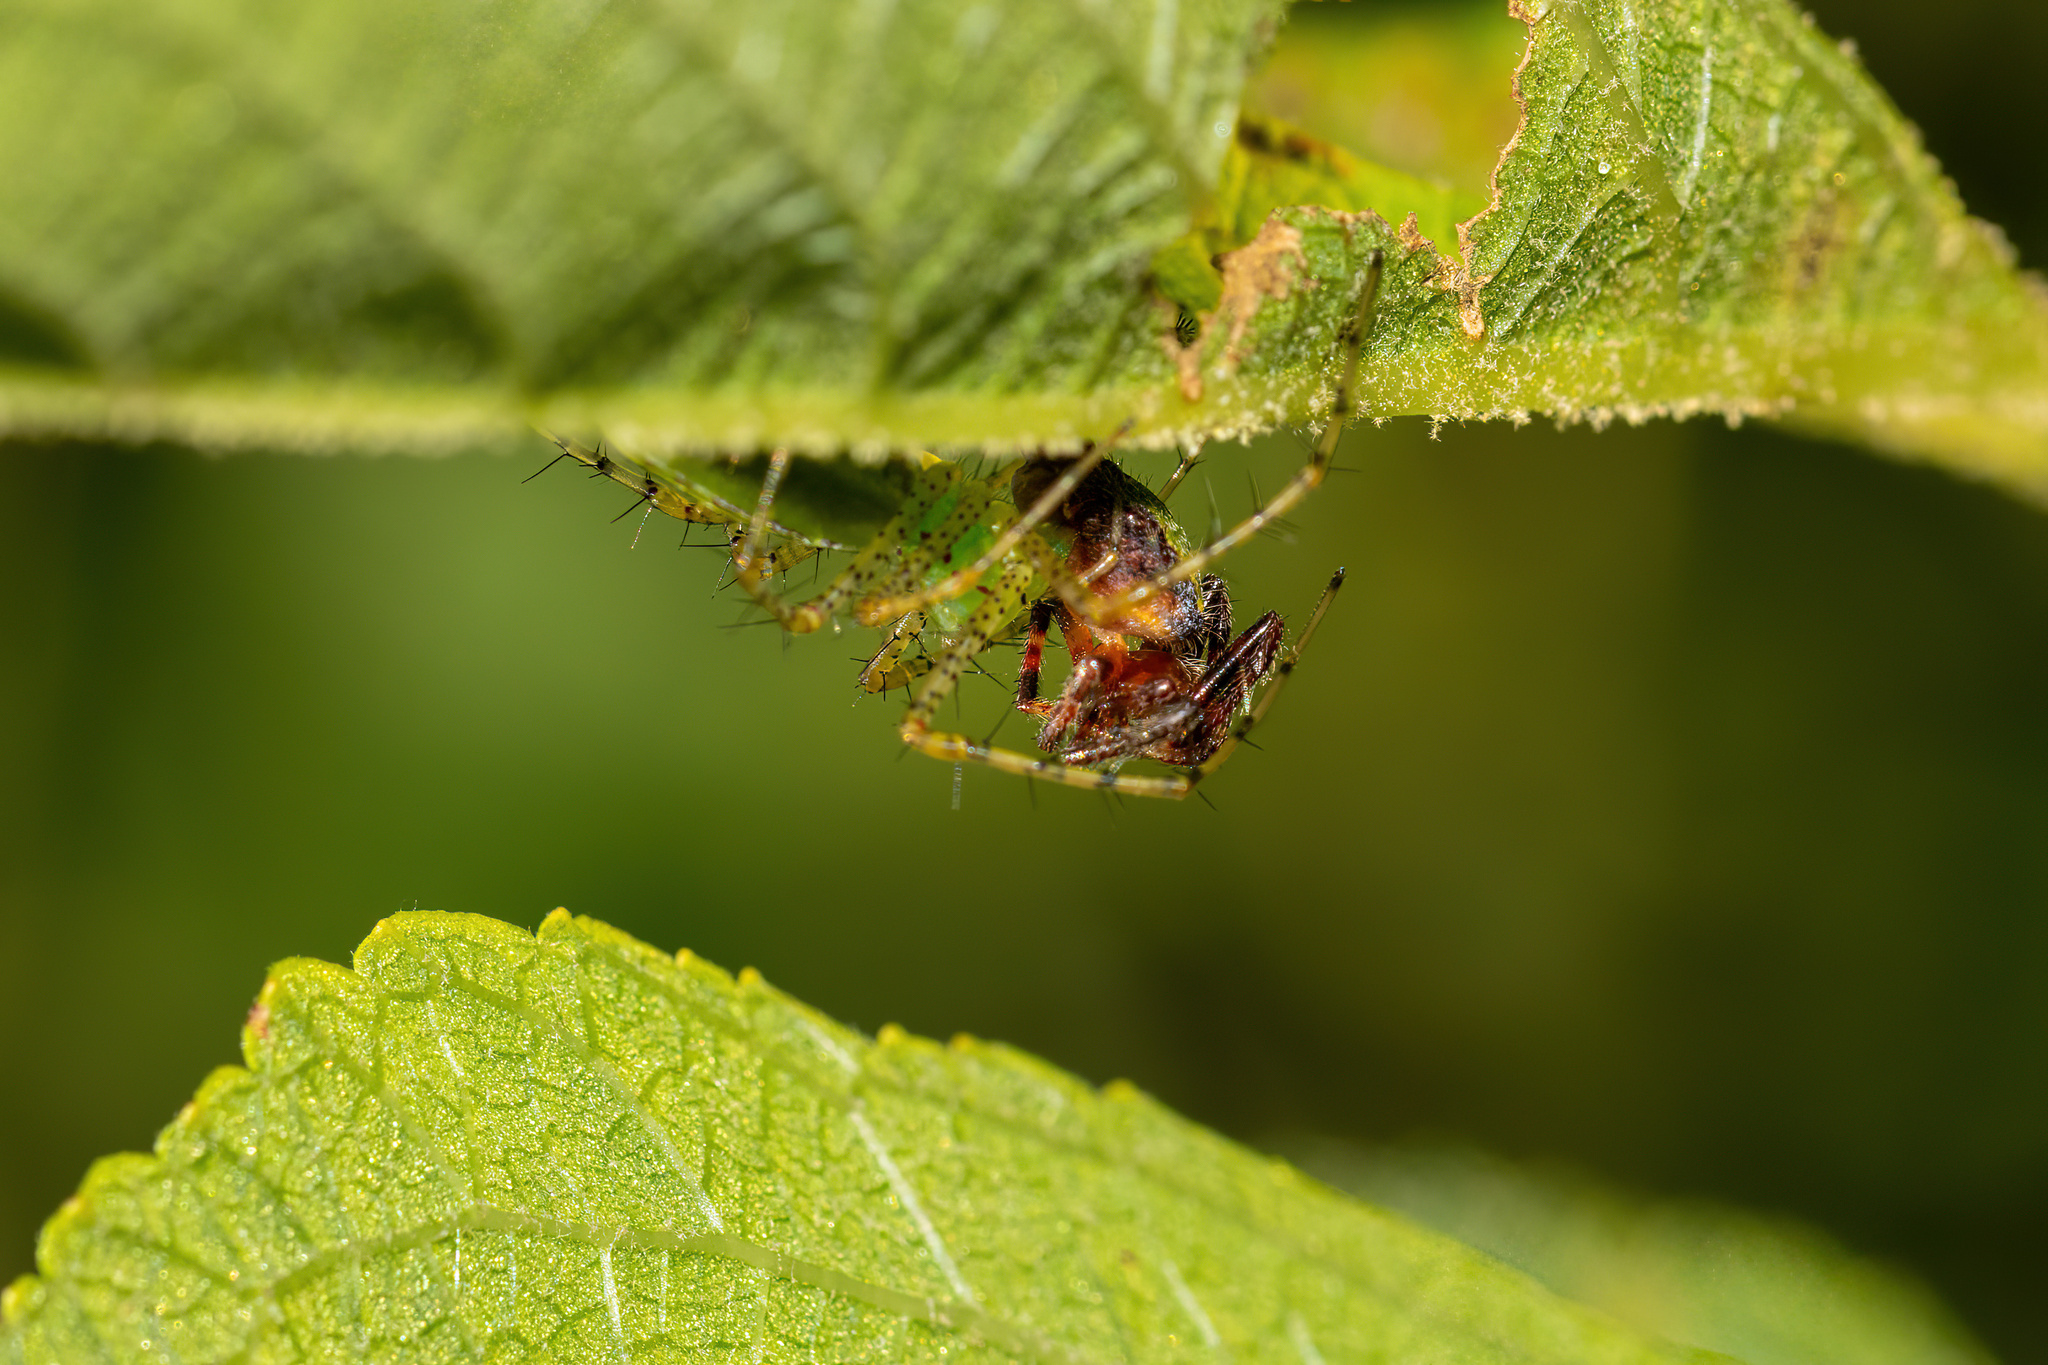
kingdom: Animalia
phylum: Arthropoda
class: Arachnida
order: Araneae
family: Oxyopidae
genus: Peucetia
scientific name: Peucetia viridans
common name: Lynx spiders
